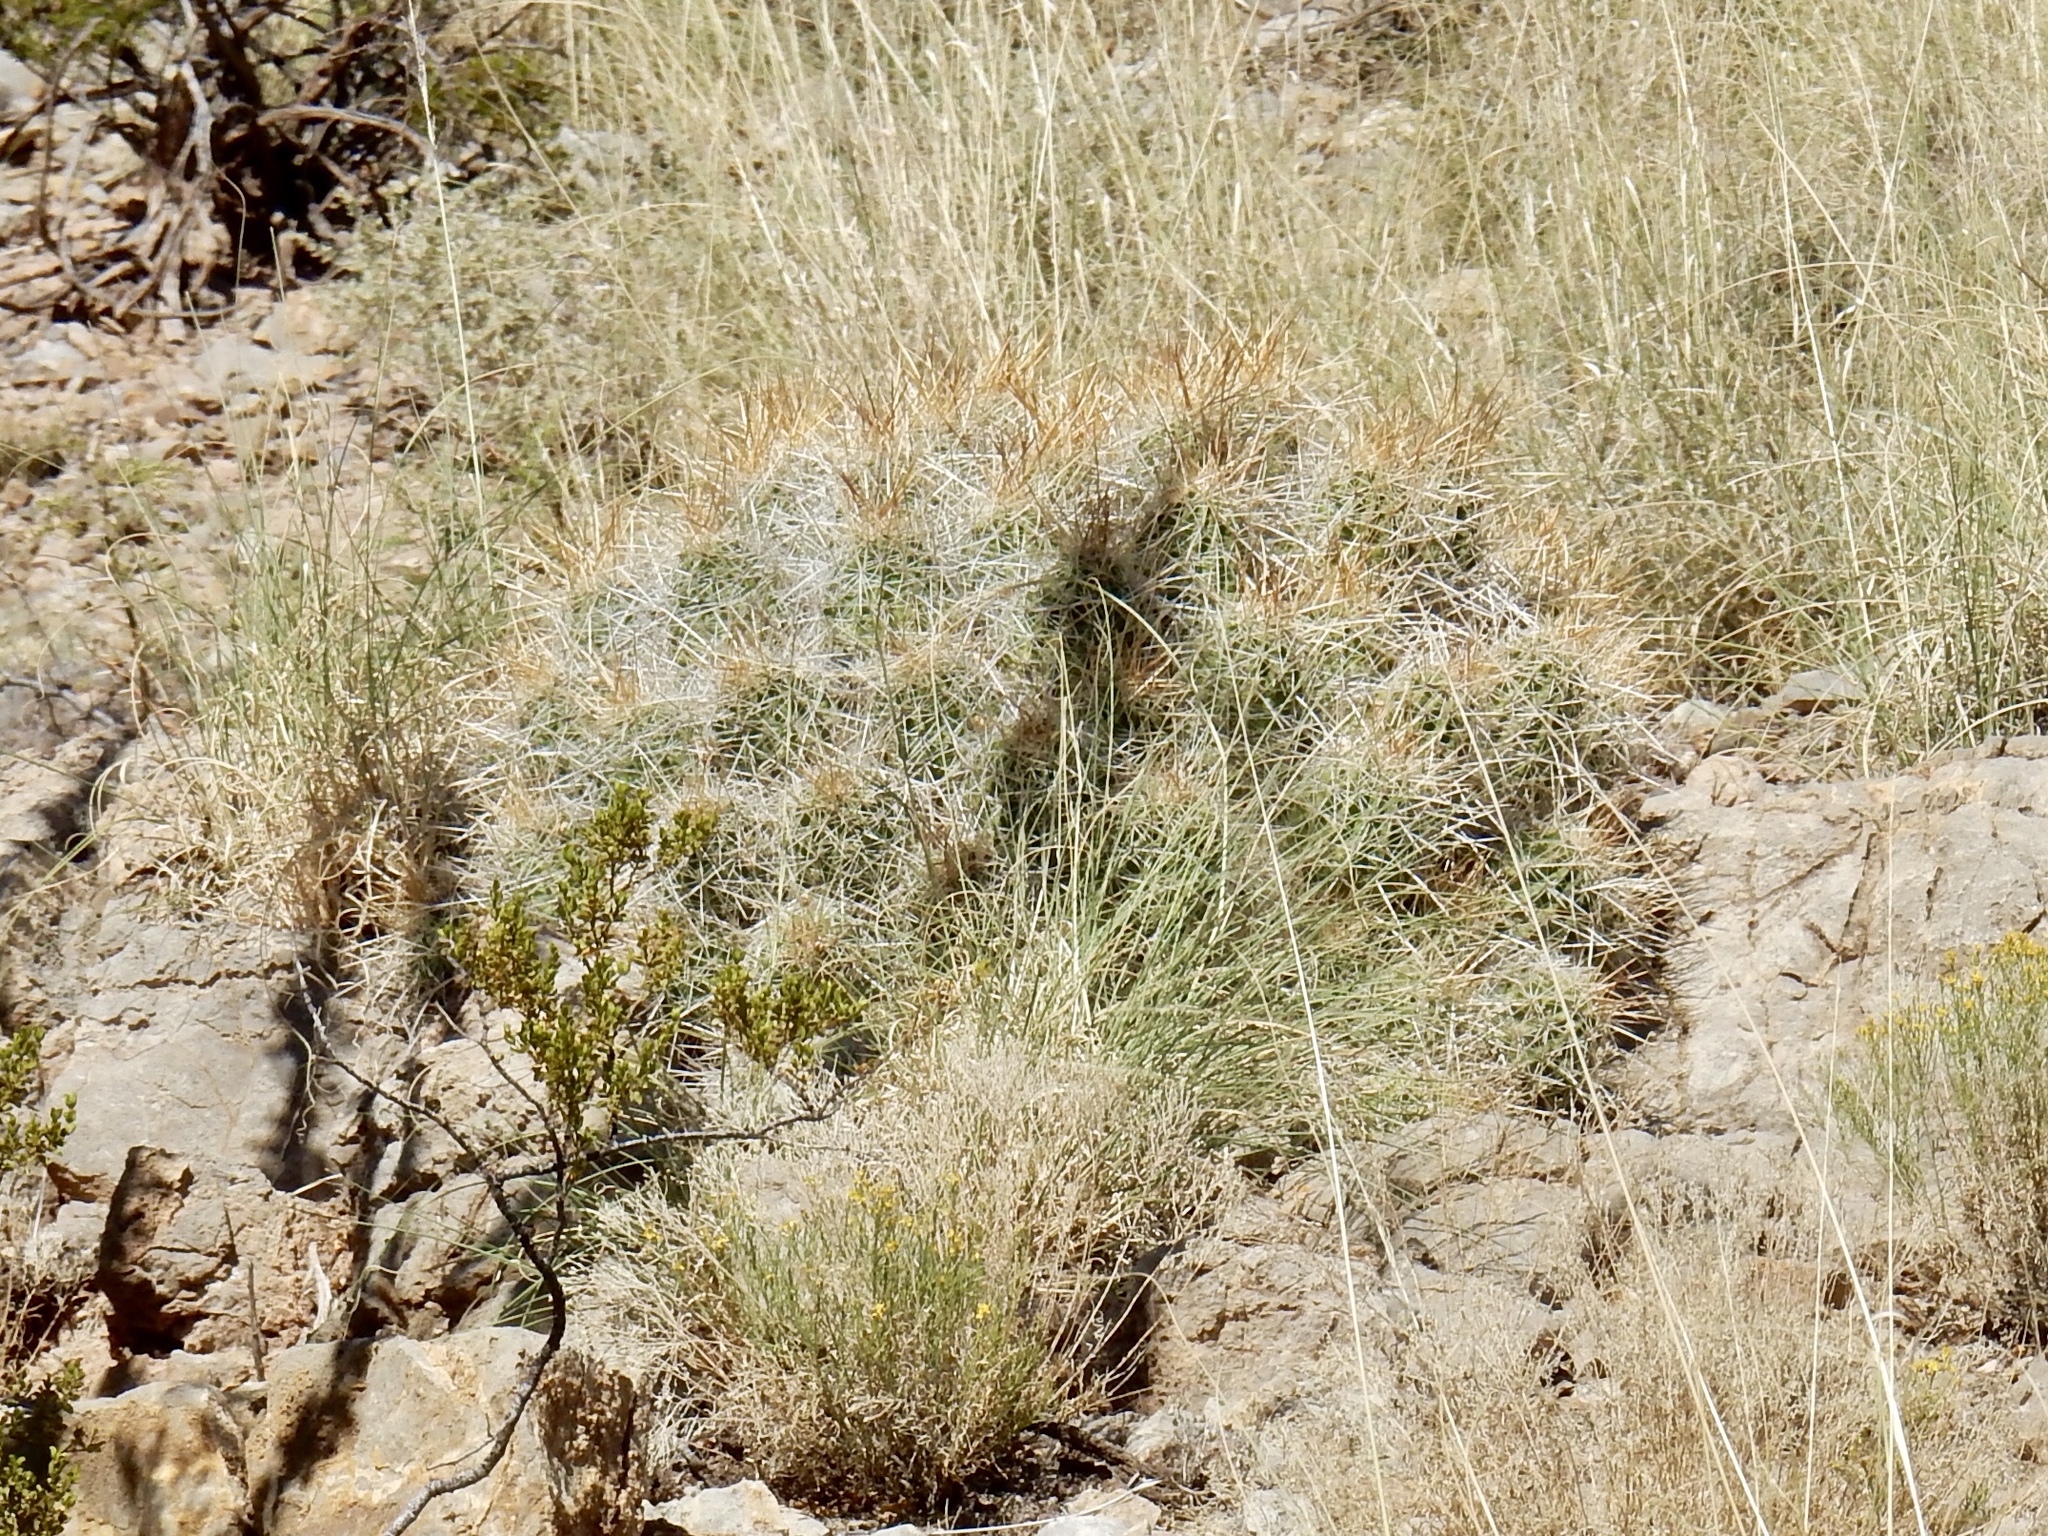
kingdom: Plantae
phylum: Tracheophyta
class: Magnoliopsida
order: Caryophyllales
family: Cactaceae
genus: Echinocereus
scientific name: Echinocereus stramineus
